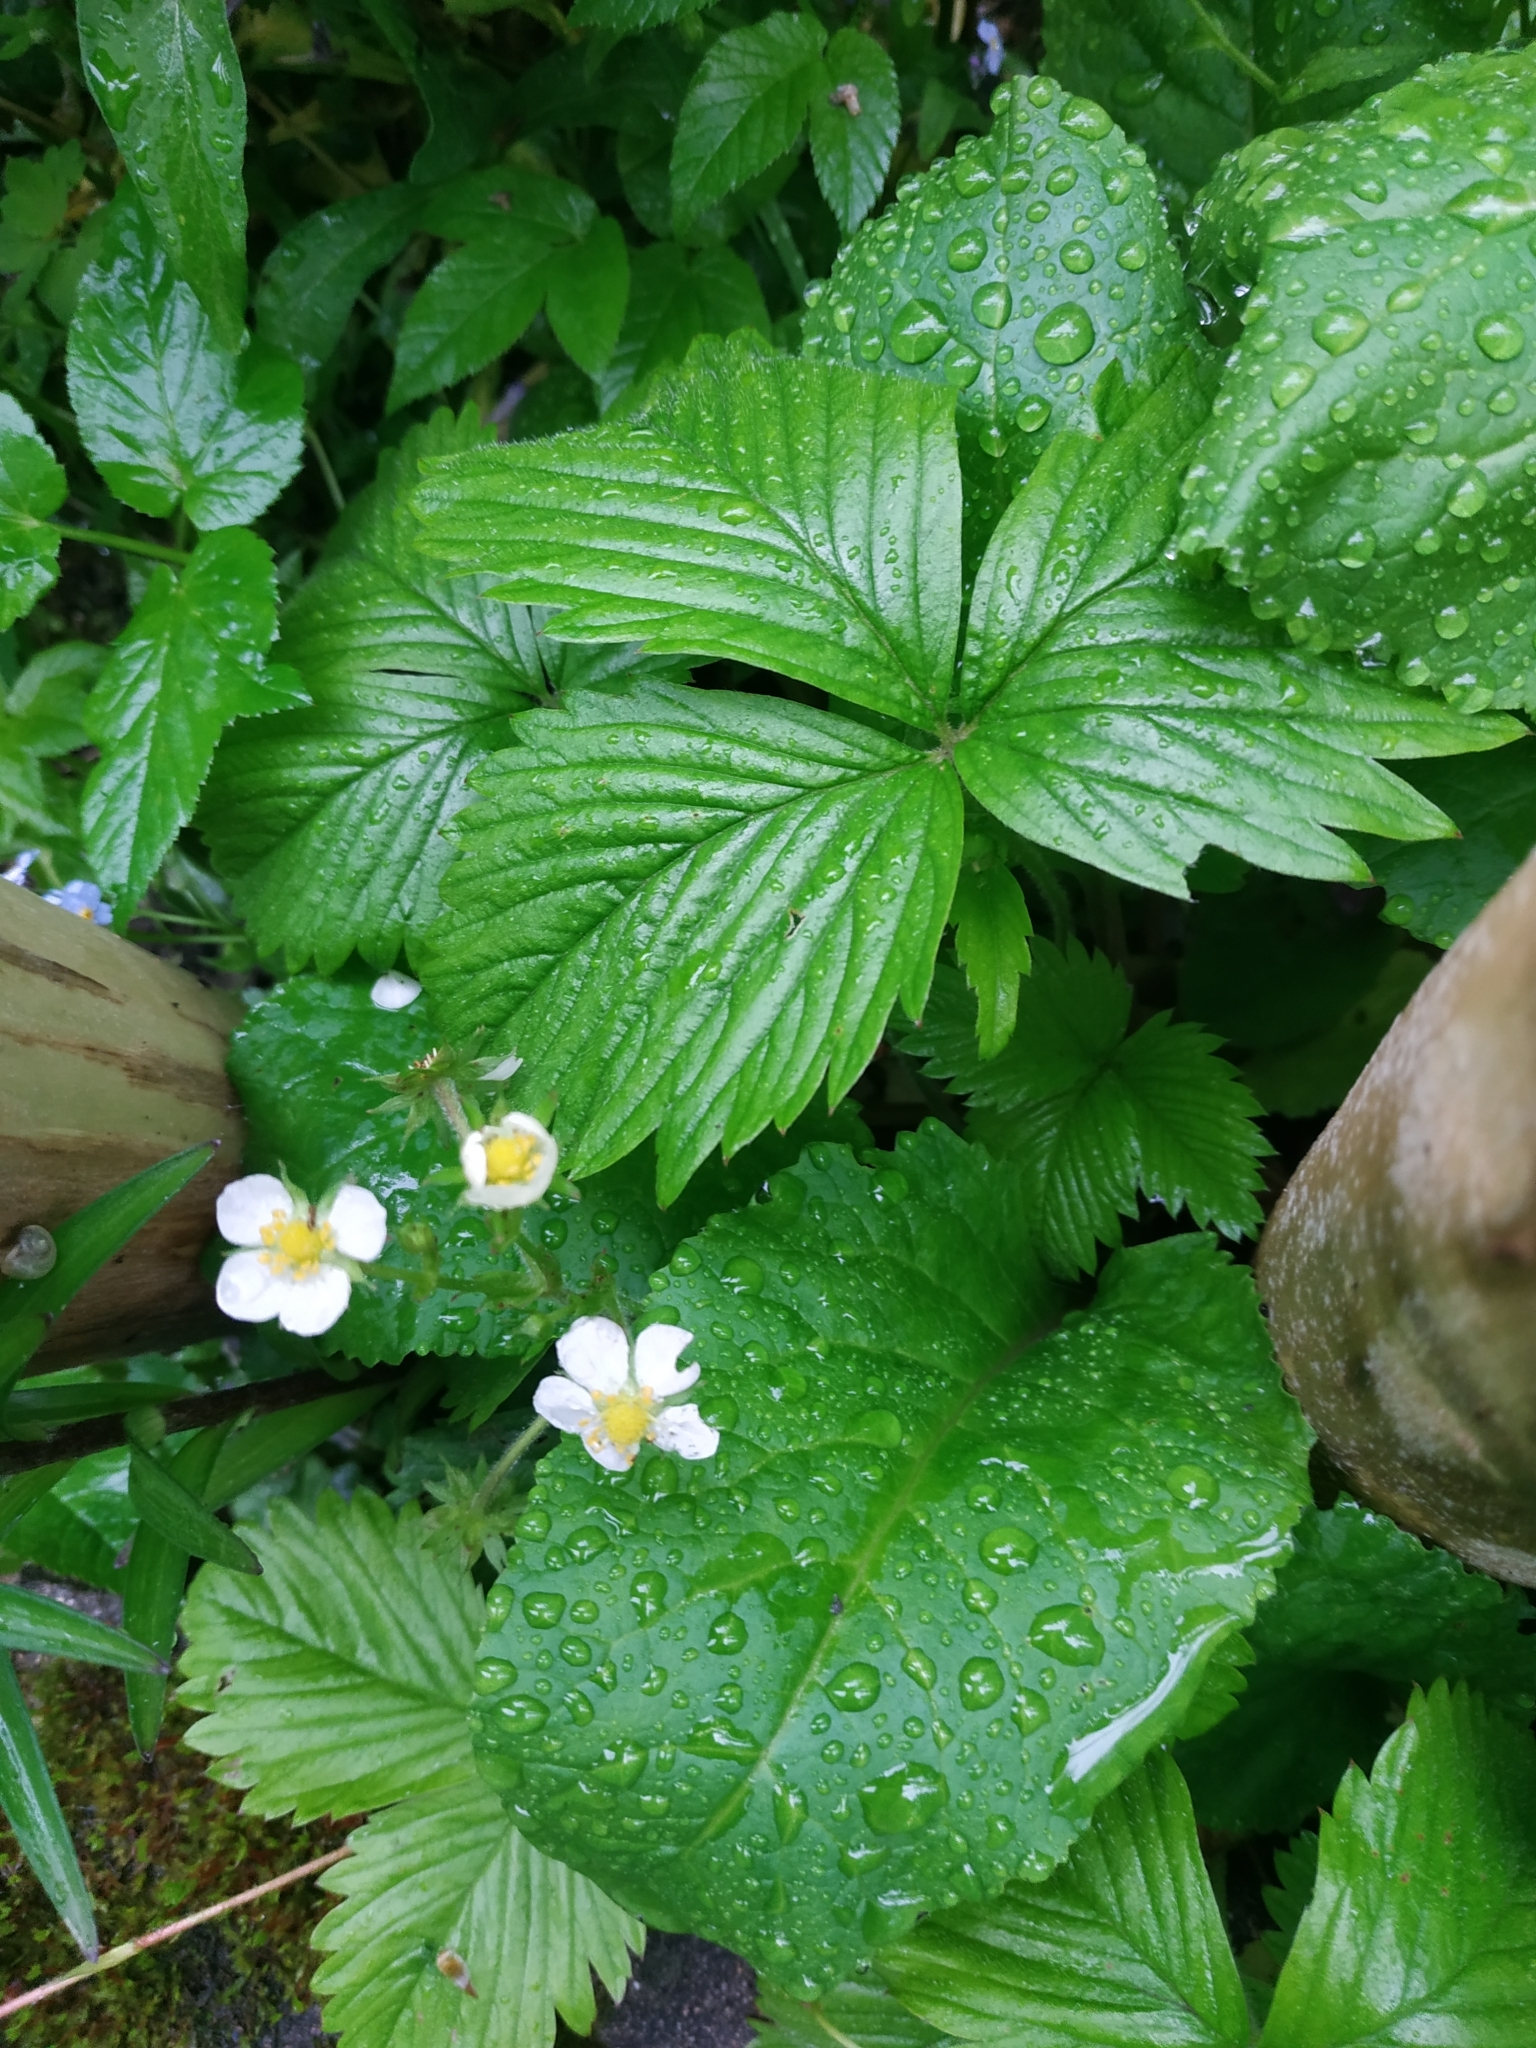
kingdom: Plantae
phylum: Tracheophyta
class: Magnoliopsida
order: Rosales
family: Rosaceae
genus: Fragaria
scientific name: Fragaria vesca
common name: Wild strawberry
